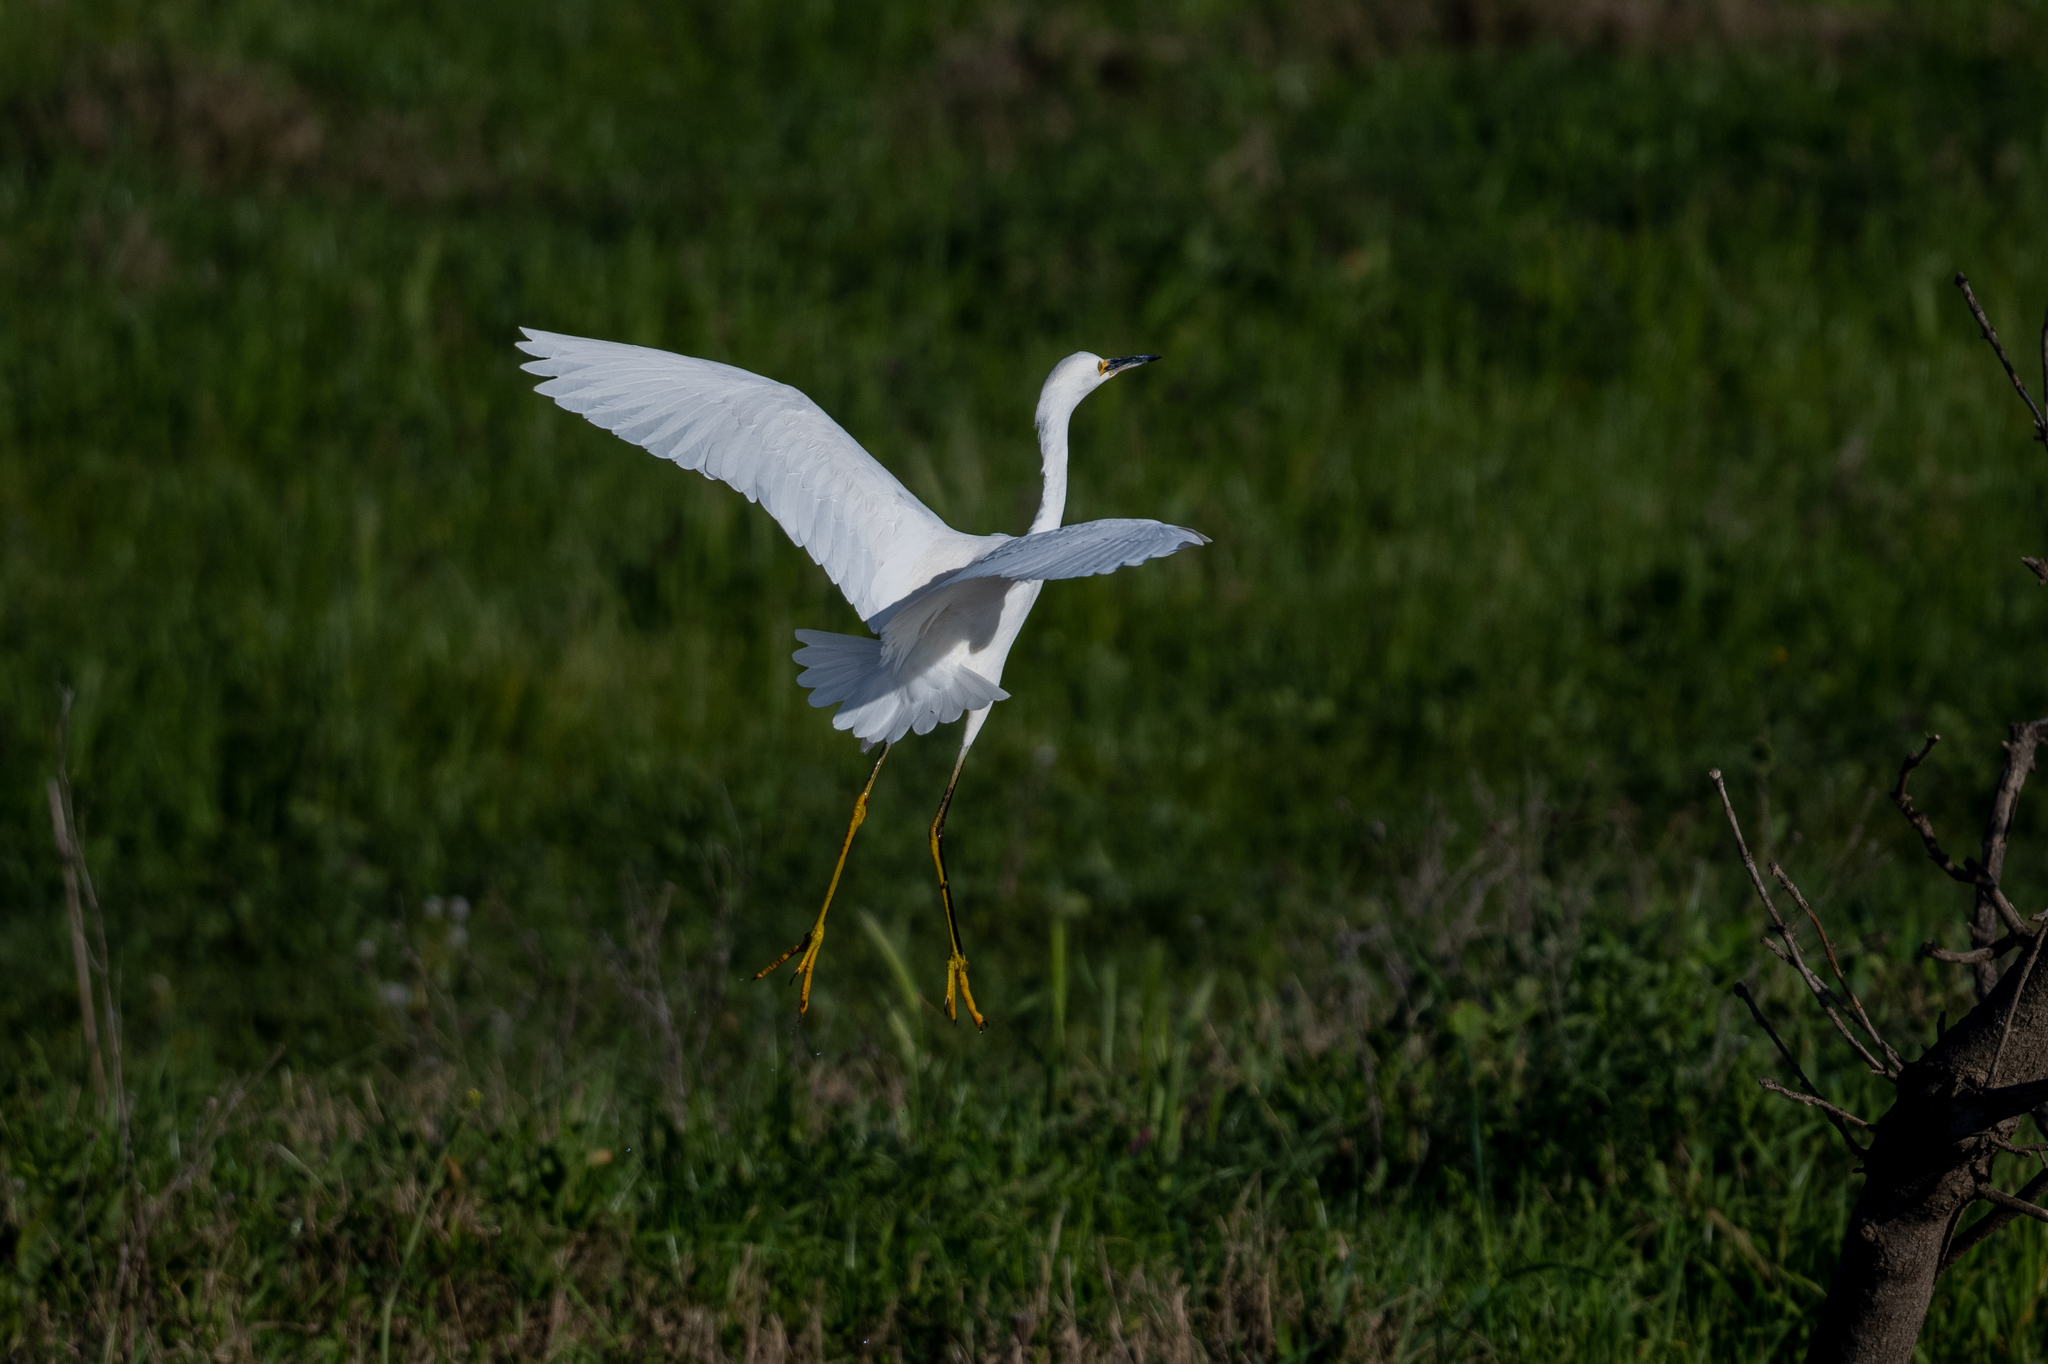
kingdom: Animalia
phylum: Chordata
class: Aves
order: Pelecaniformes
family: Ardeidae
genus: Egretta
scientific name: Egretta thula
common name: Snowy egret
